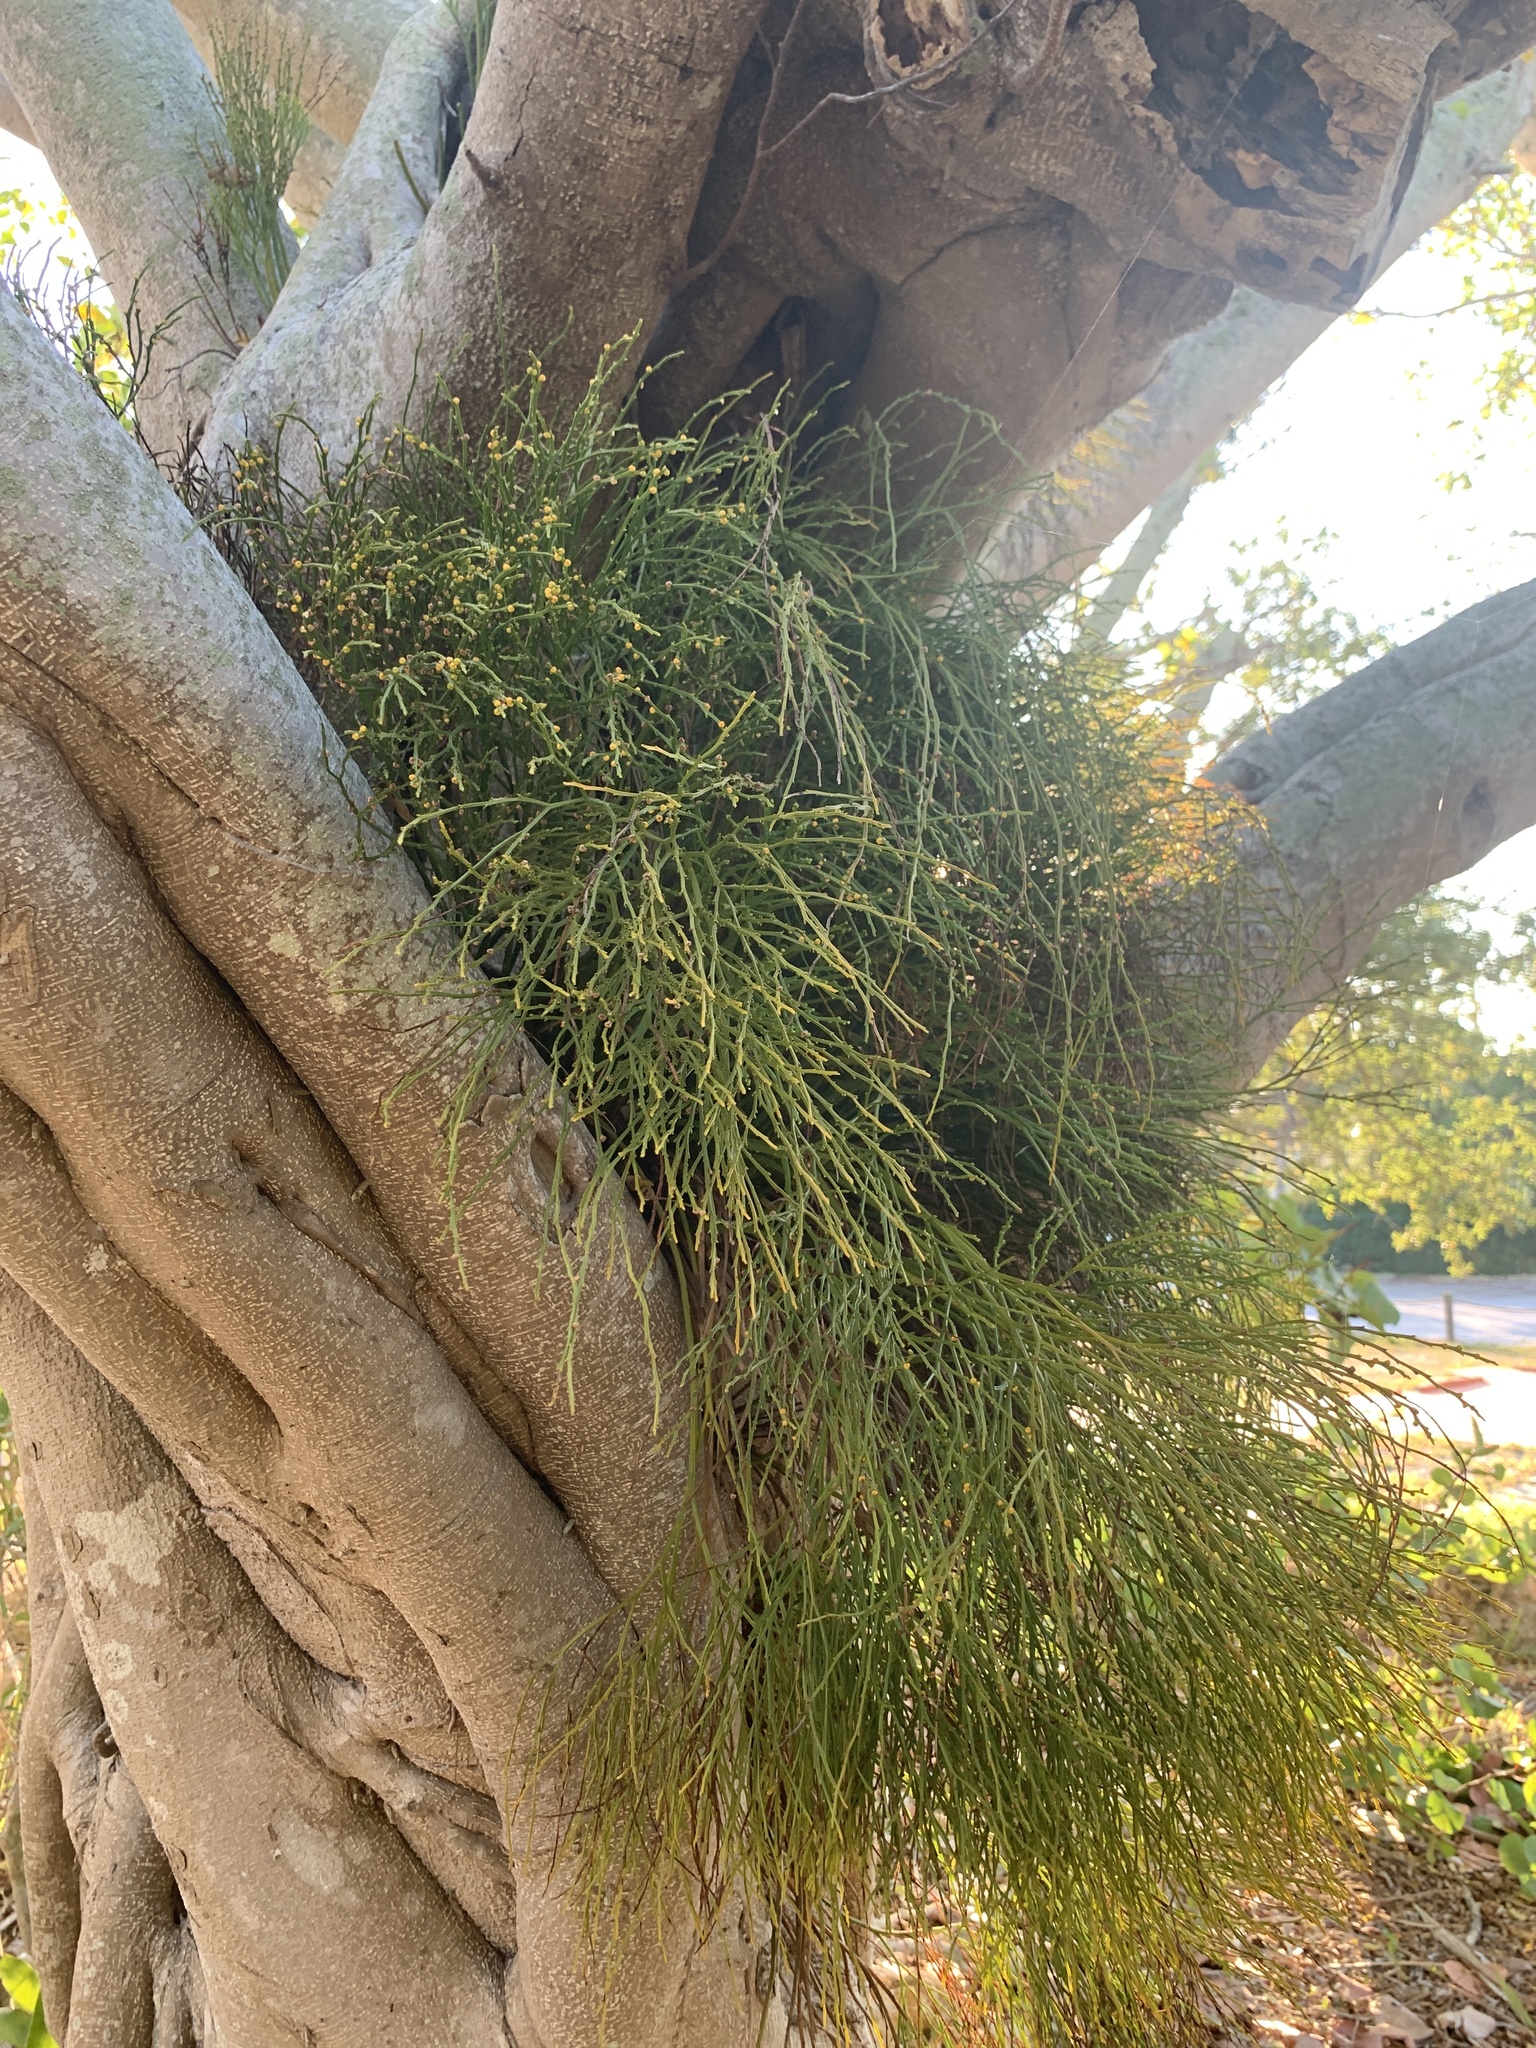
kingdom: Plantae
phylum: Tracheophyta
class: Polypodiopsida
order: Psilotales
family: Psilotaceae
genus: Psilotum
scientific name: Psilotum nudum
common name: Skeleton fork fern
